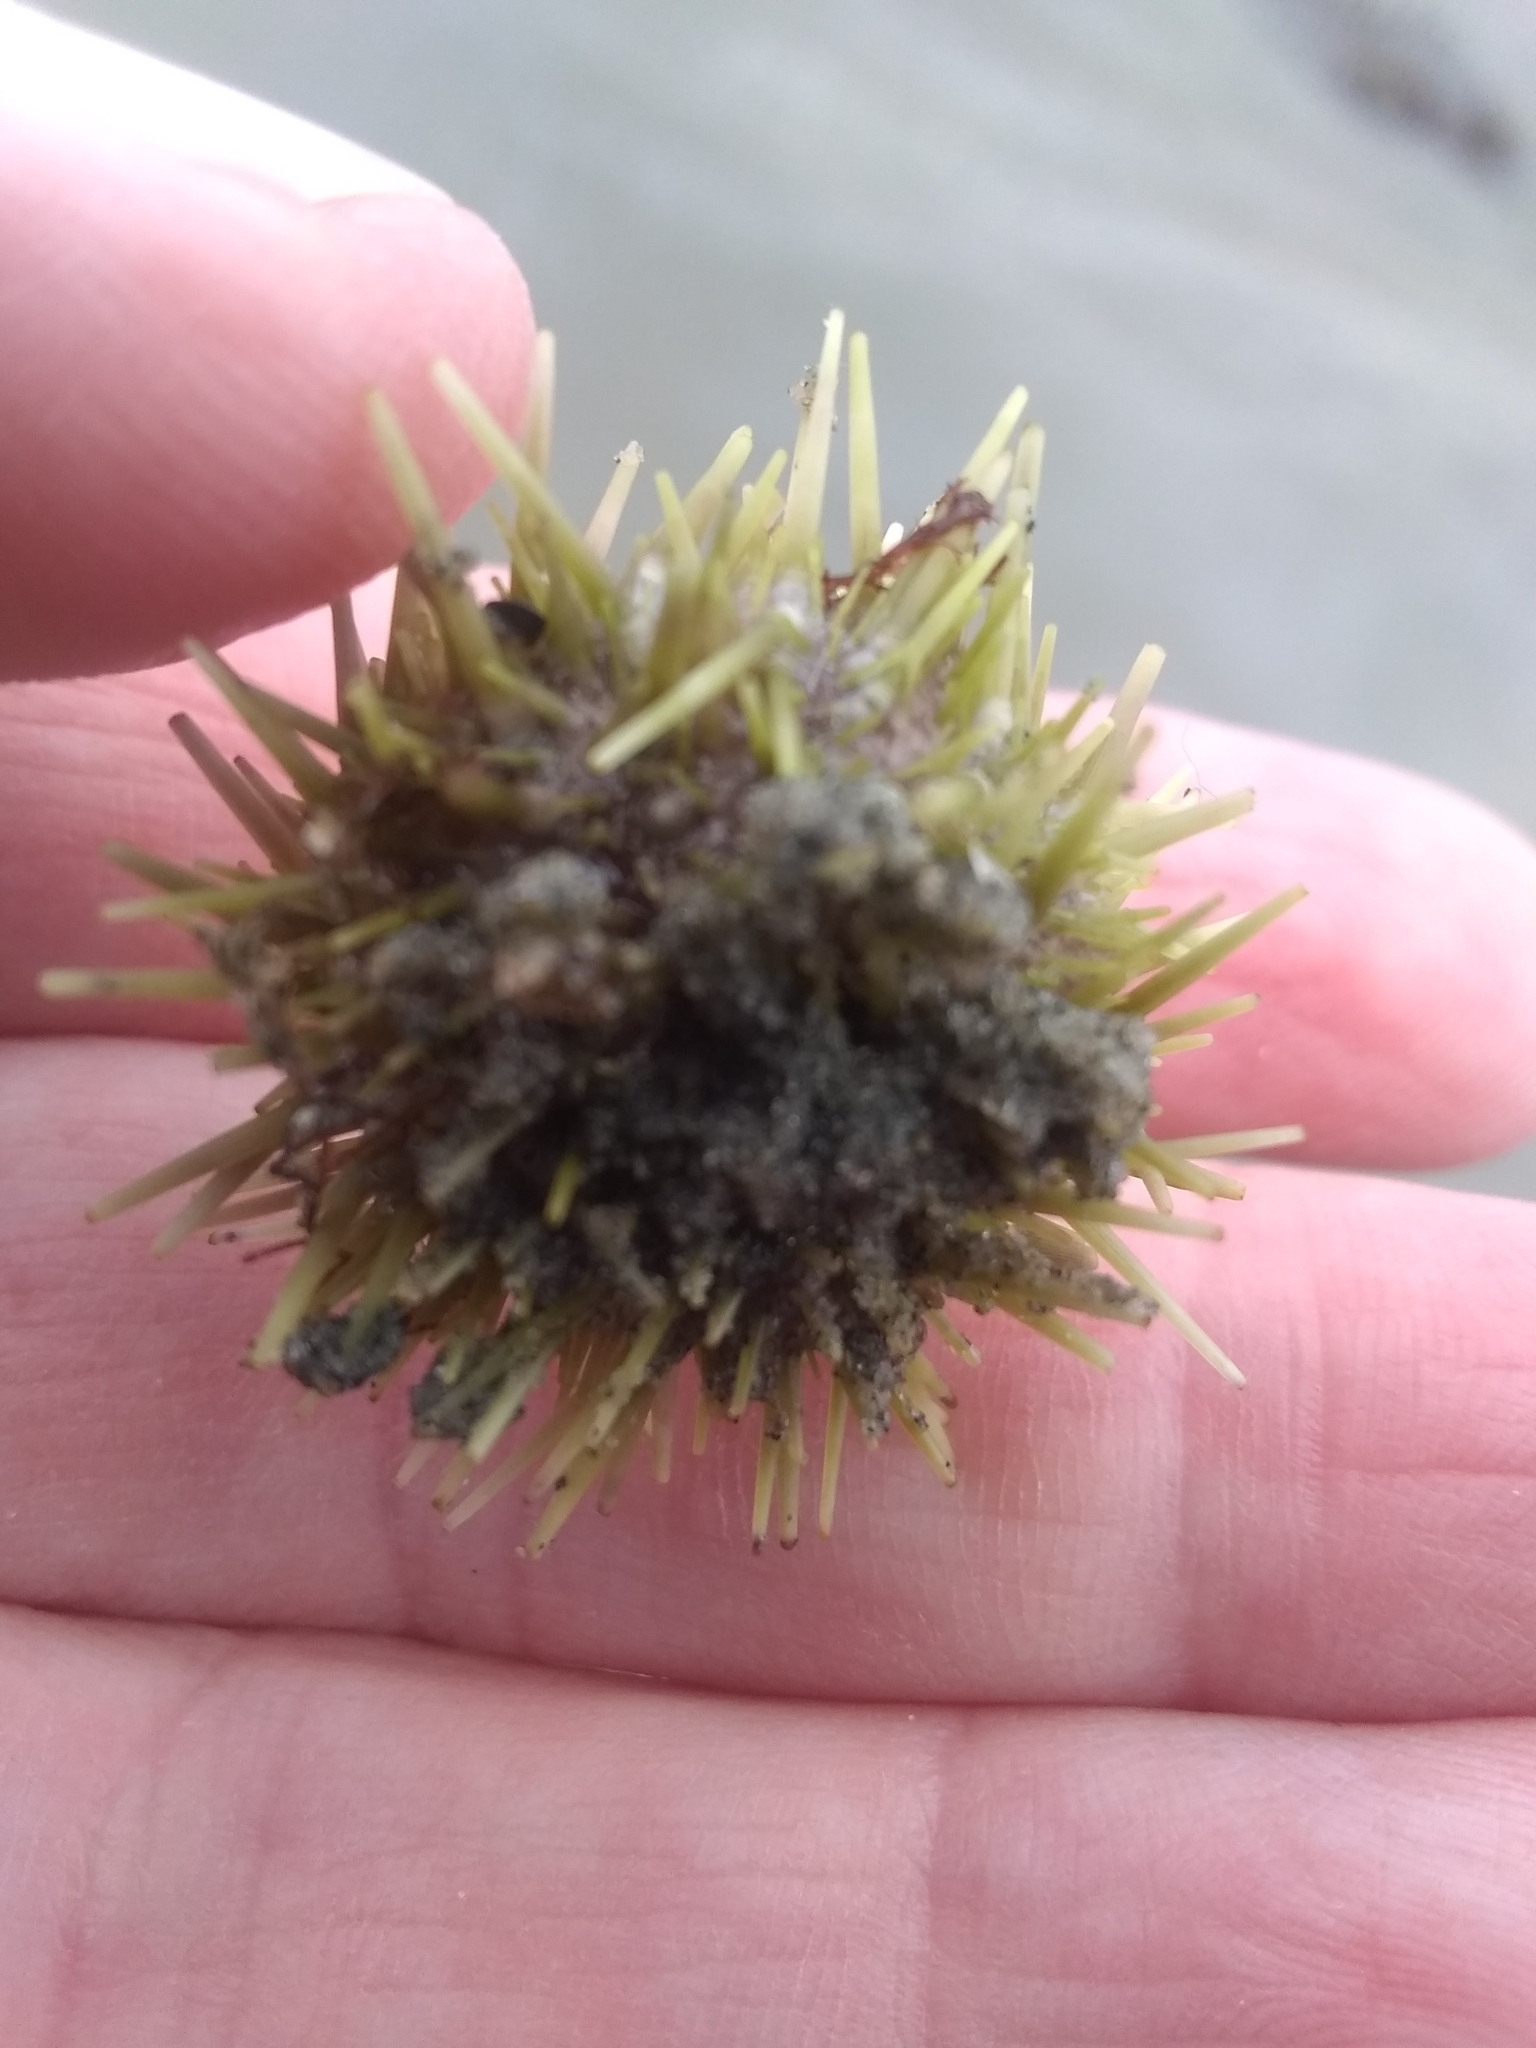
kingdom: Animalia
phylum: Echinodermata
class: Echinoidea
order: Camarodonta
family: Strongylocentrotidae
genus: Strongylocentrotus
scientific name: Strongylocentrotus droebachiensis
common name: Northern sea urchin
